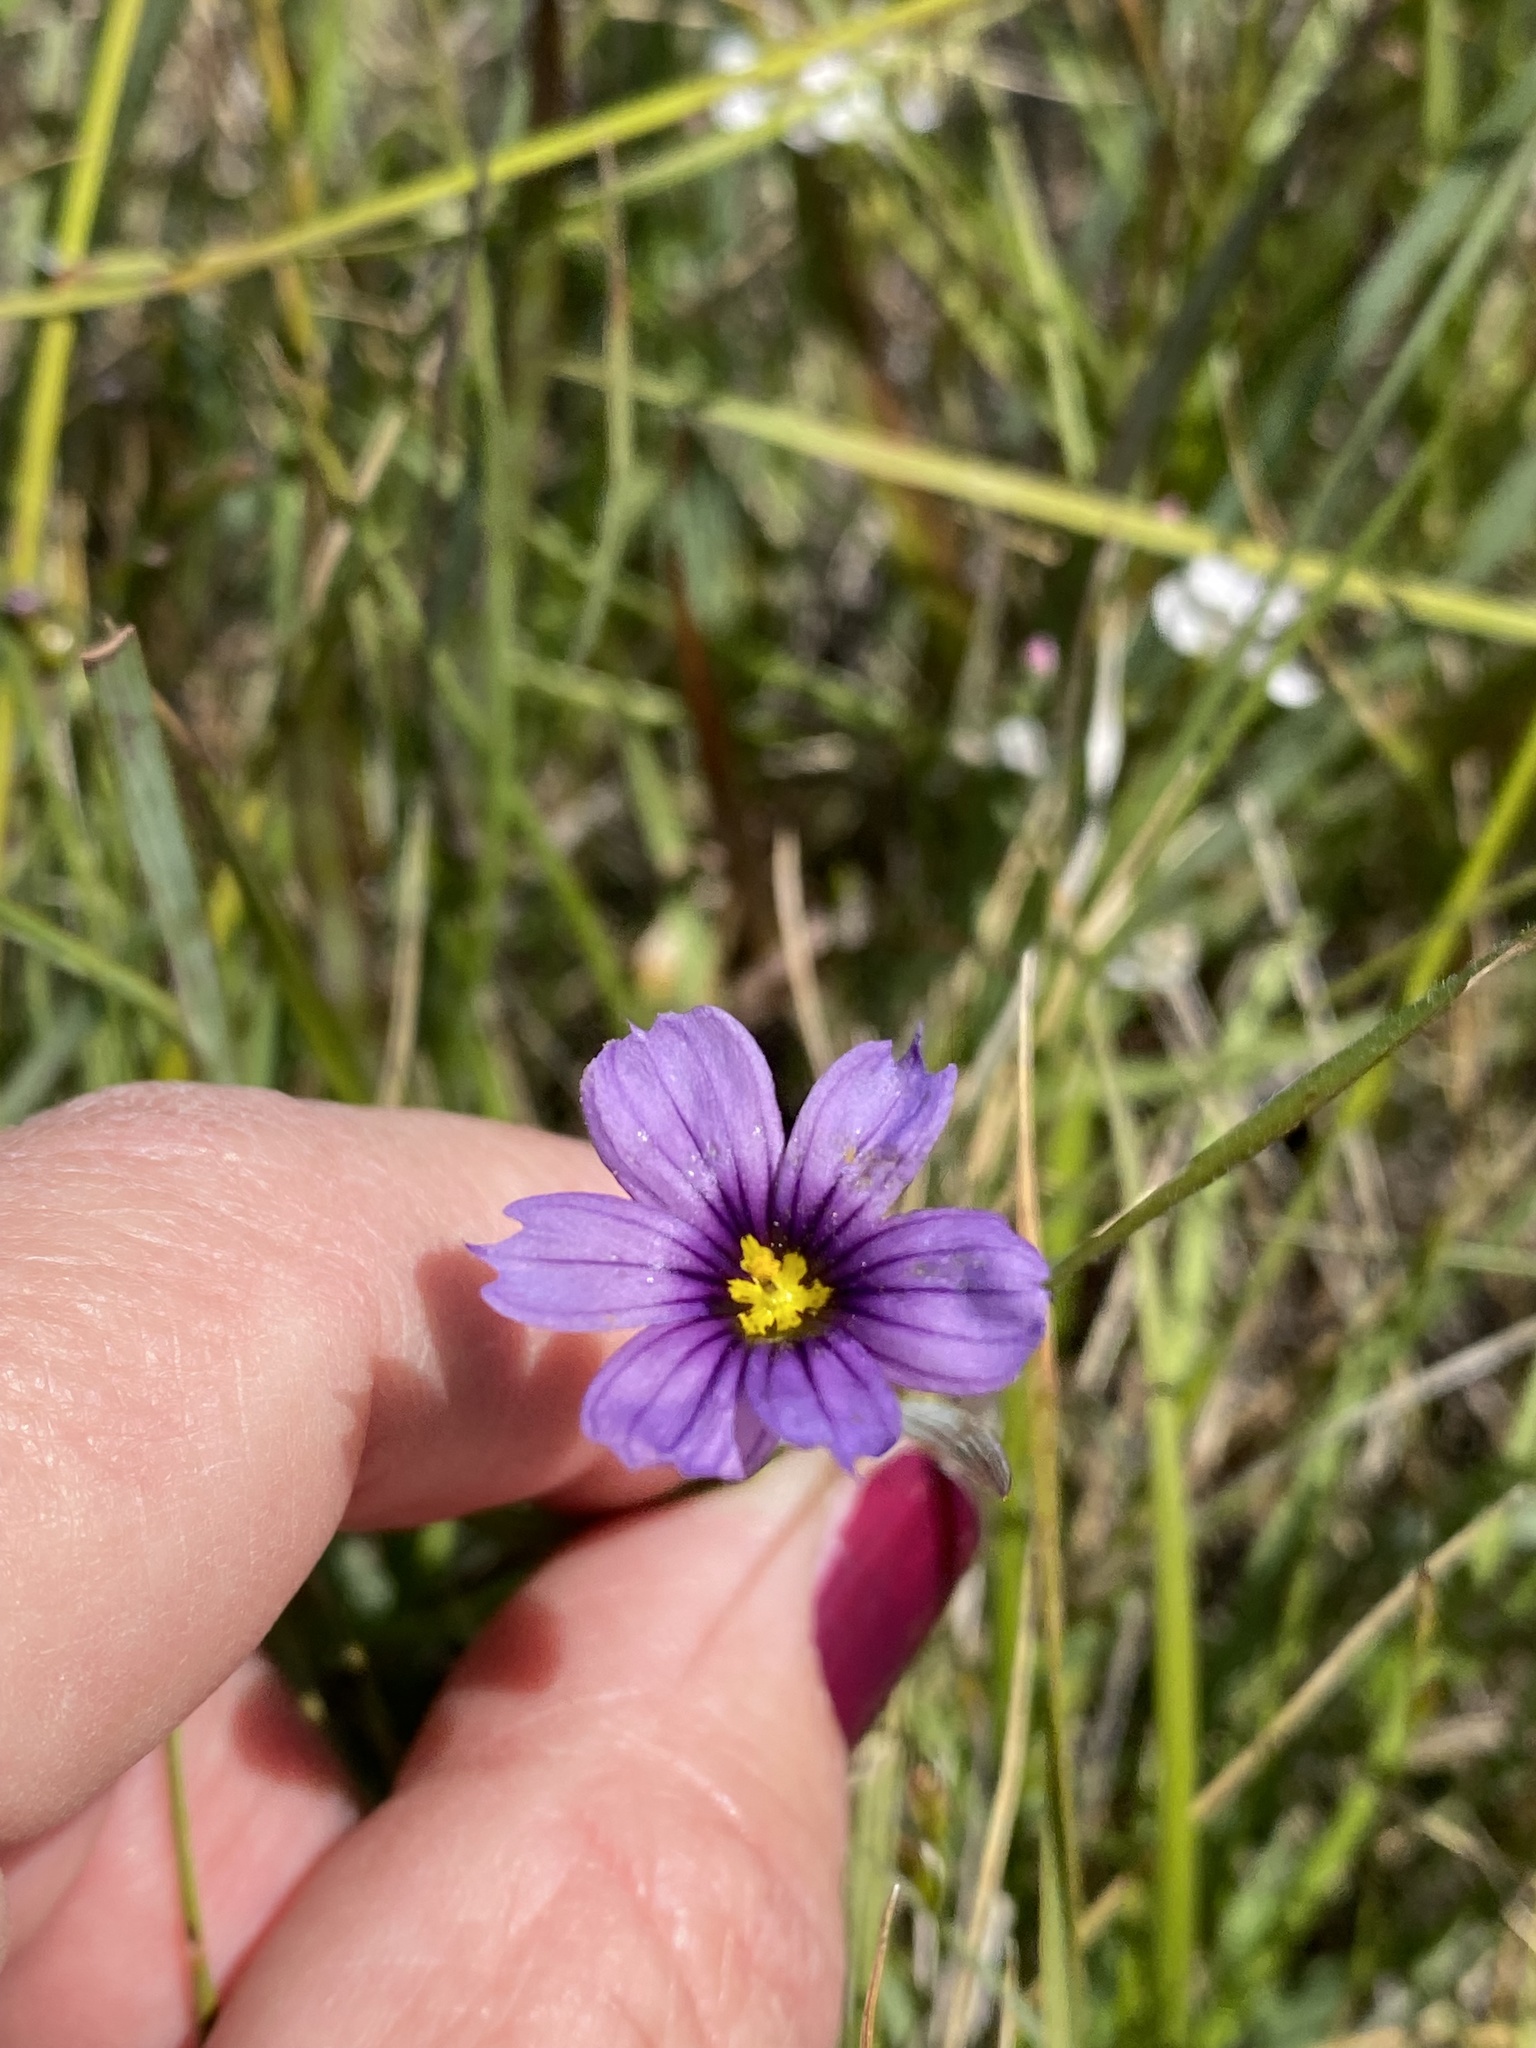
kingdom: Plantae
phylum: Tracheophyta
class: Liliopsida
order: Asparagales
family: Iridaceae
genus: Sisyrinchium
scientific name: Sisyrinchium bellum
